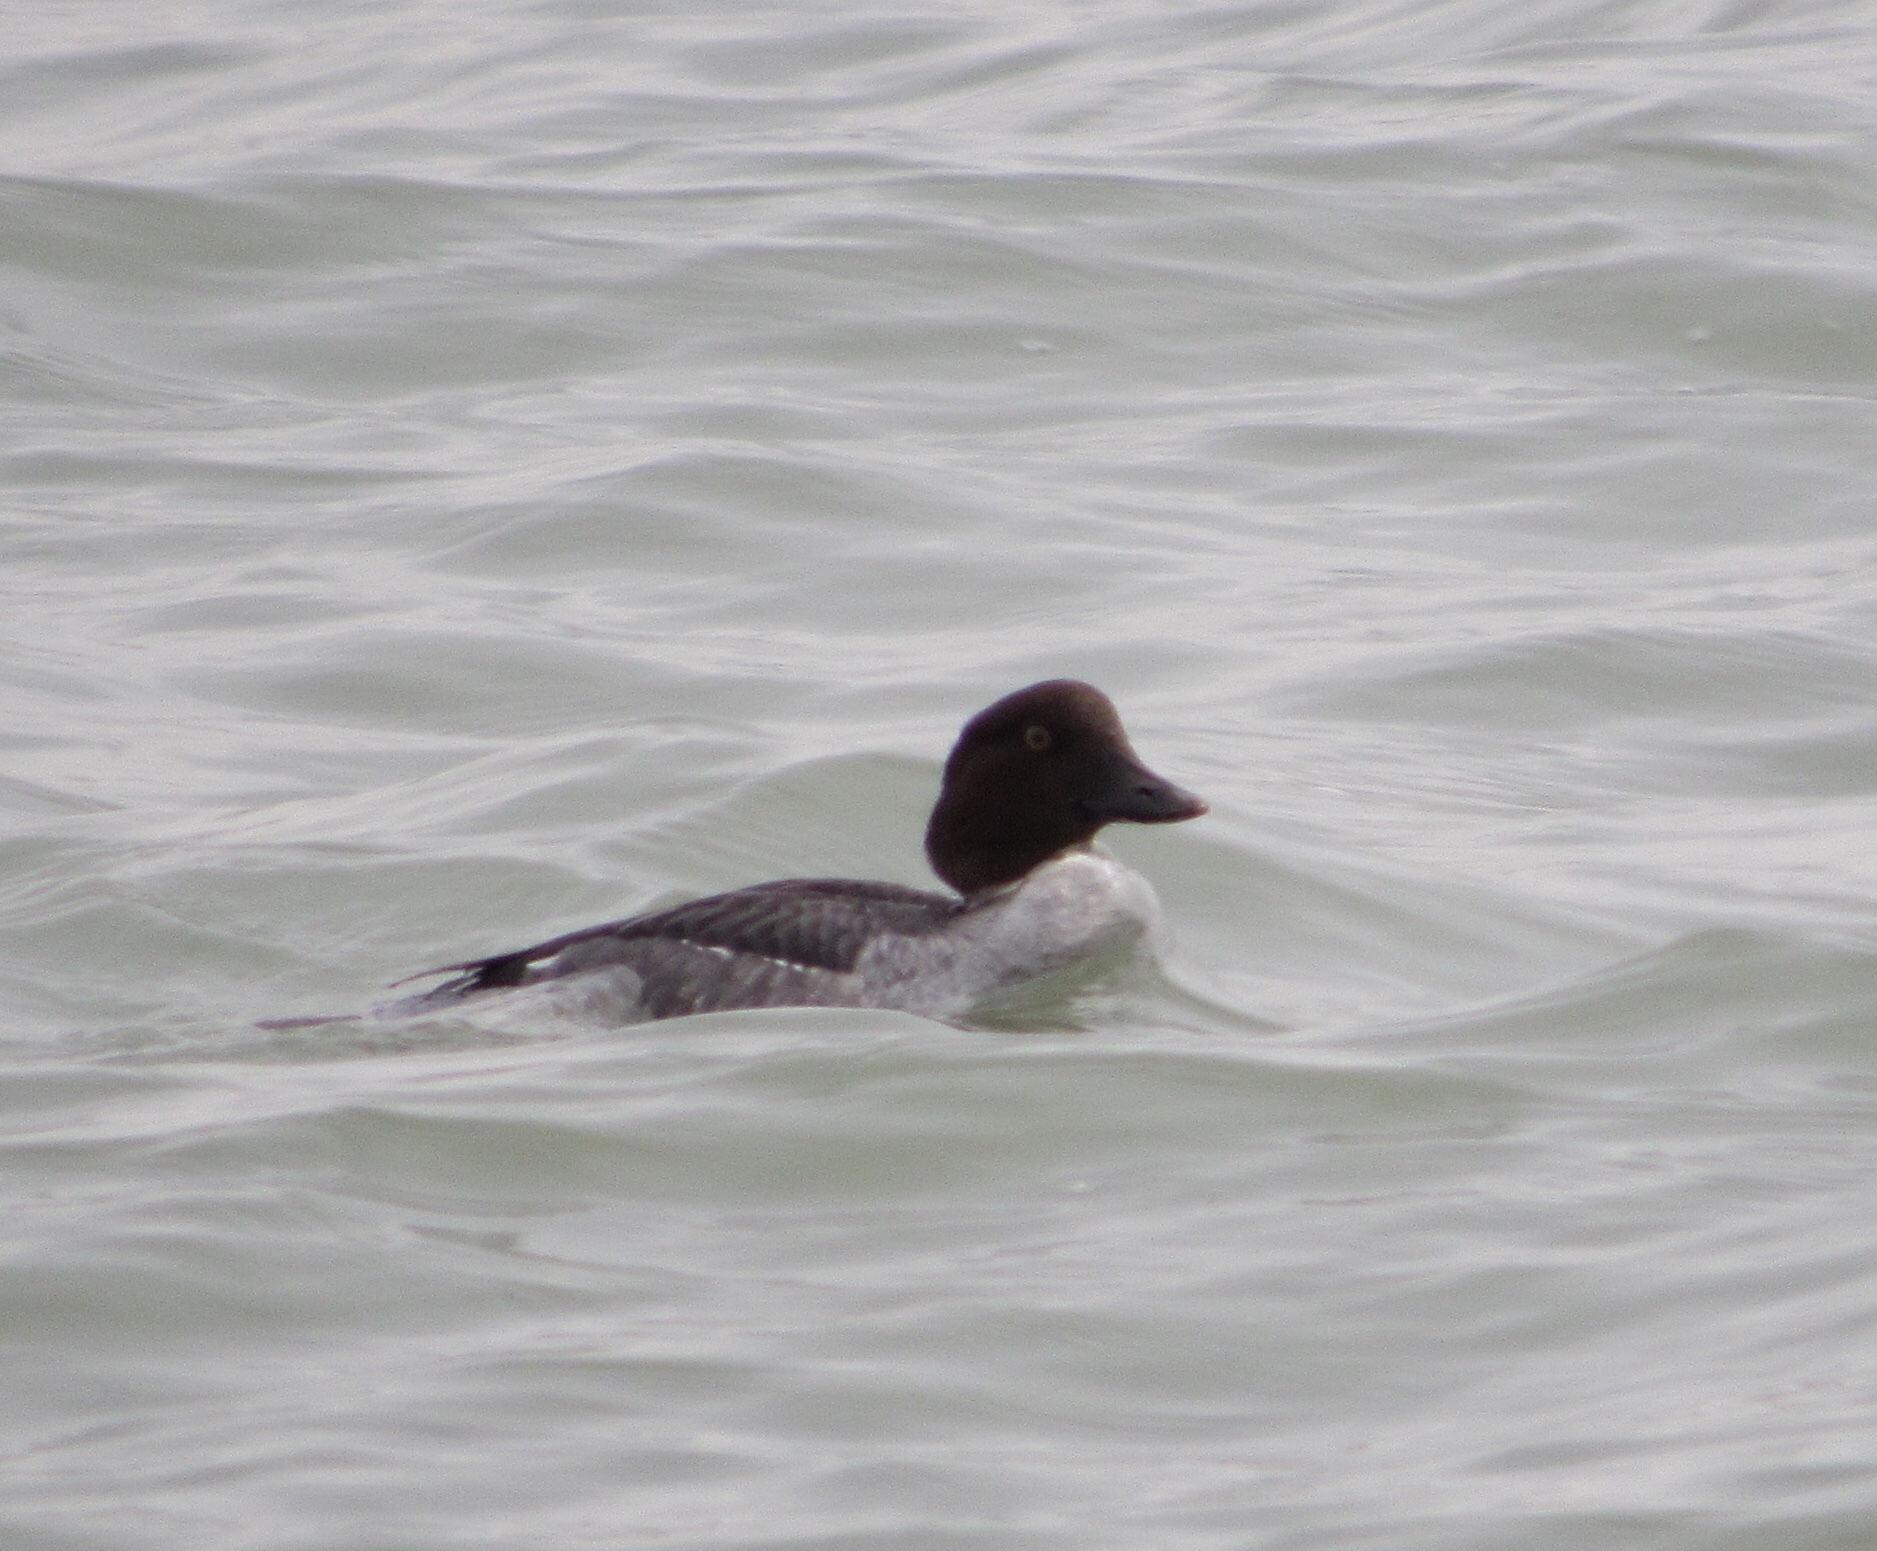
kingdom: Animalia
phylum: Chordata
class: Aves
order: Anseriformes
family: Anatidae
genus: Bucephala
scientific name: Bucephala clangula
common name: Common goldeneye
